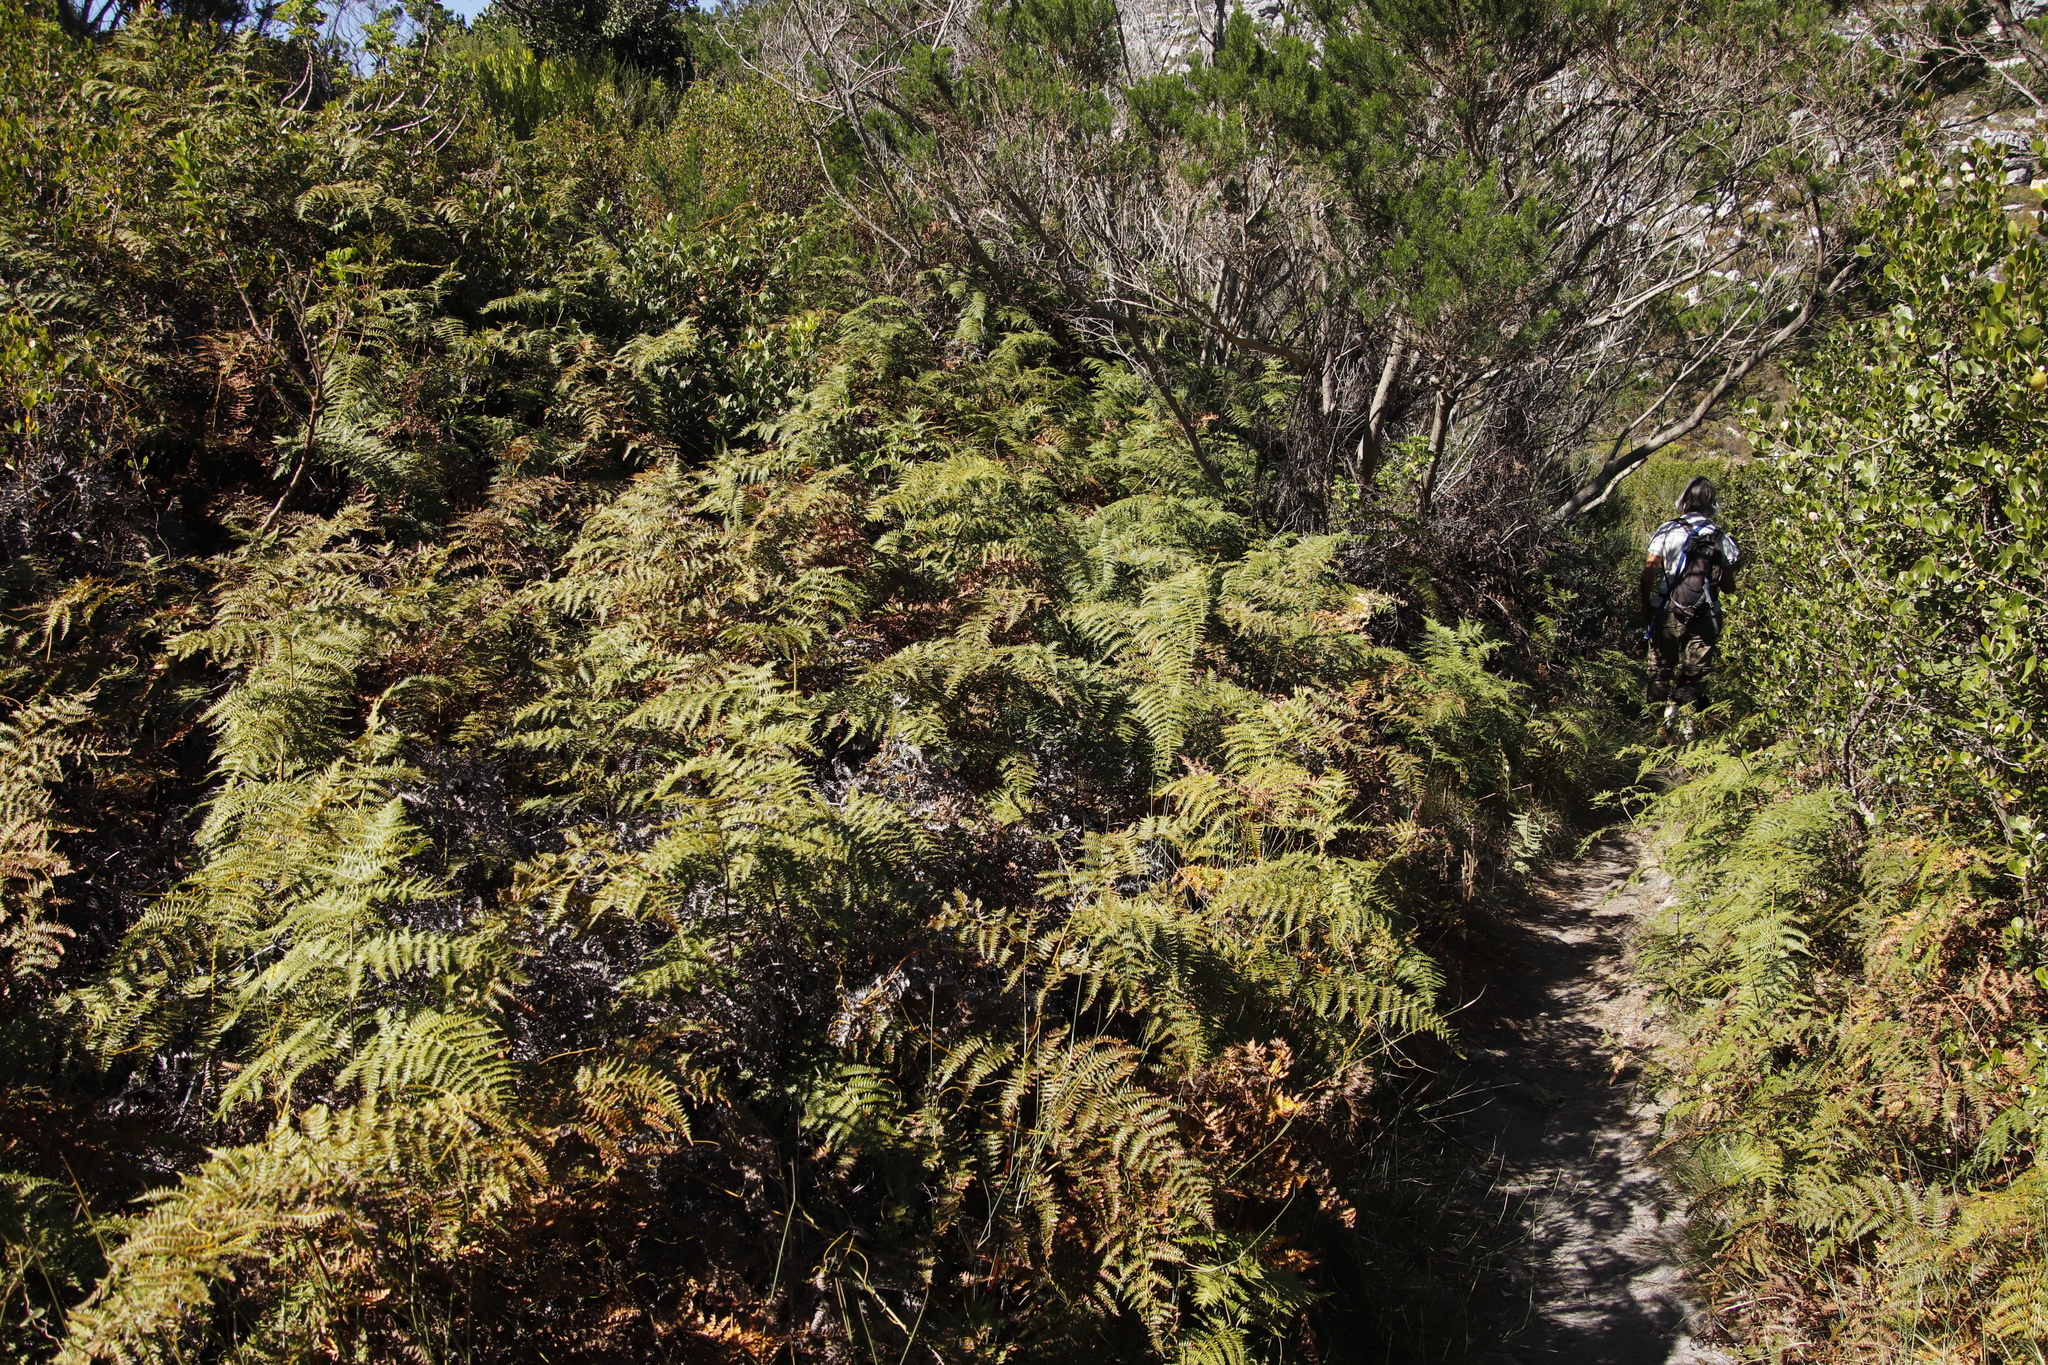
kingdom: Plantae
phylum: Tracheophyta
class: Polypodiopsida
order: Polypodiales
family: Dennstaedtiaceae
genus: Pteridium
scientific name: Pteridium aquilinum
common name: Bracken
